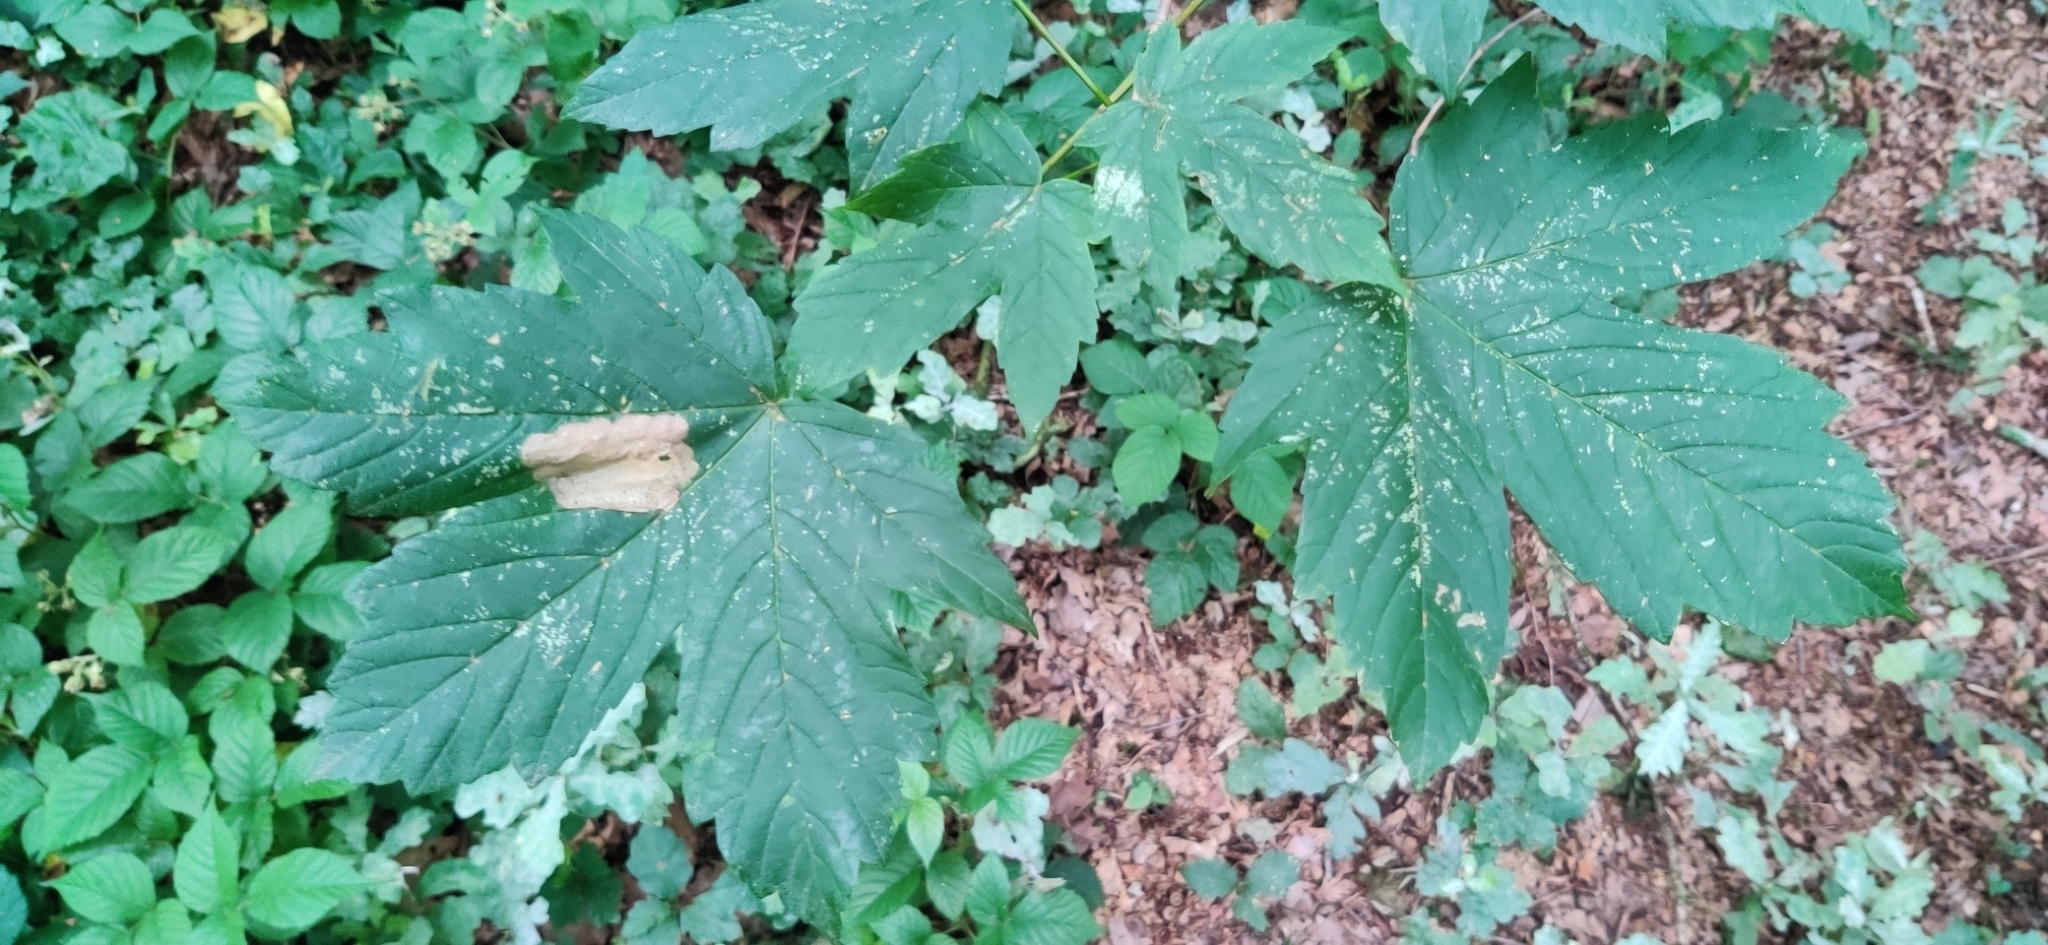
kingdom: Plantae
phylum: Tracheophyta
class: Magnoliopsida
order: Sapindales
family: Sapindaceae
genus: Acer
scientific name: Acer pseudoplatanus
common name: Sycamore
